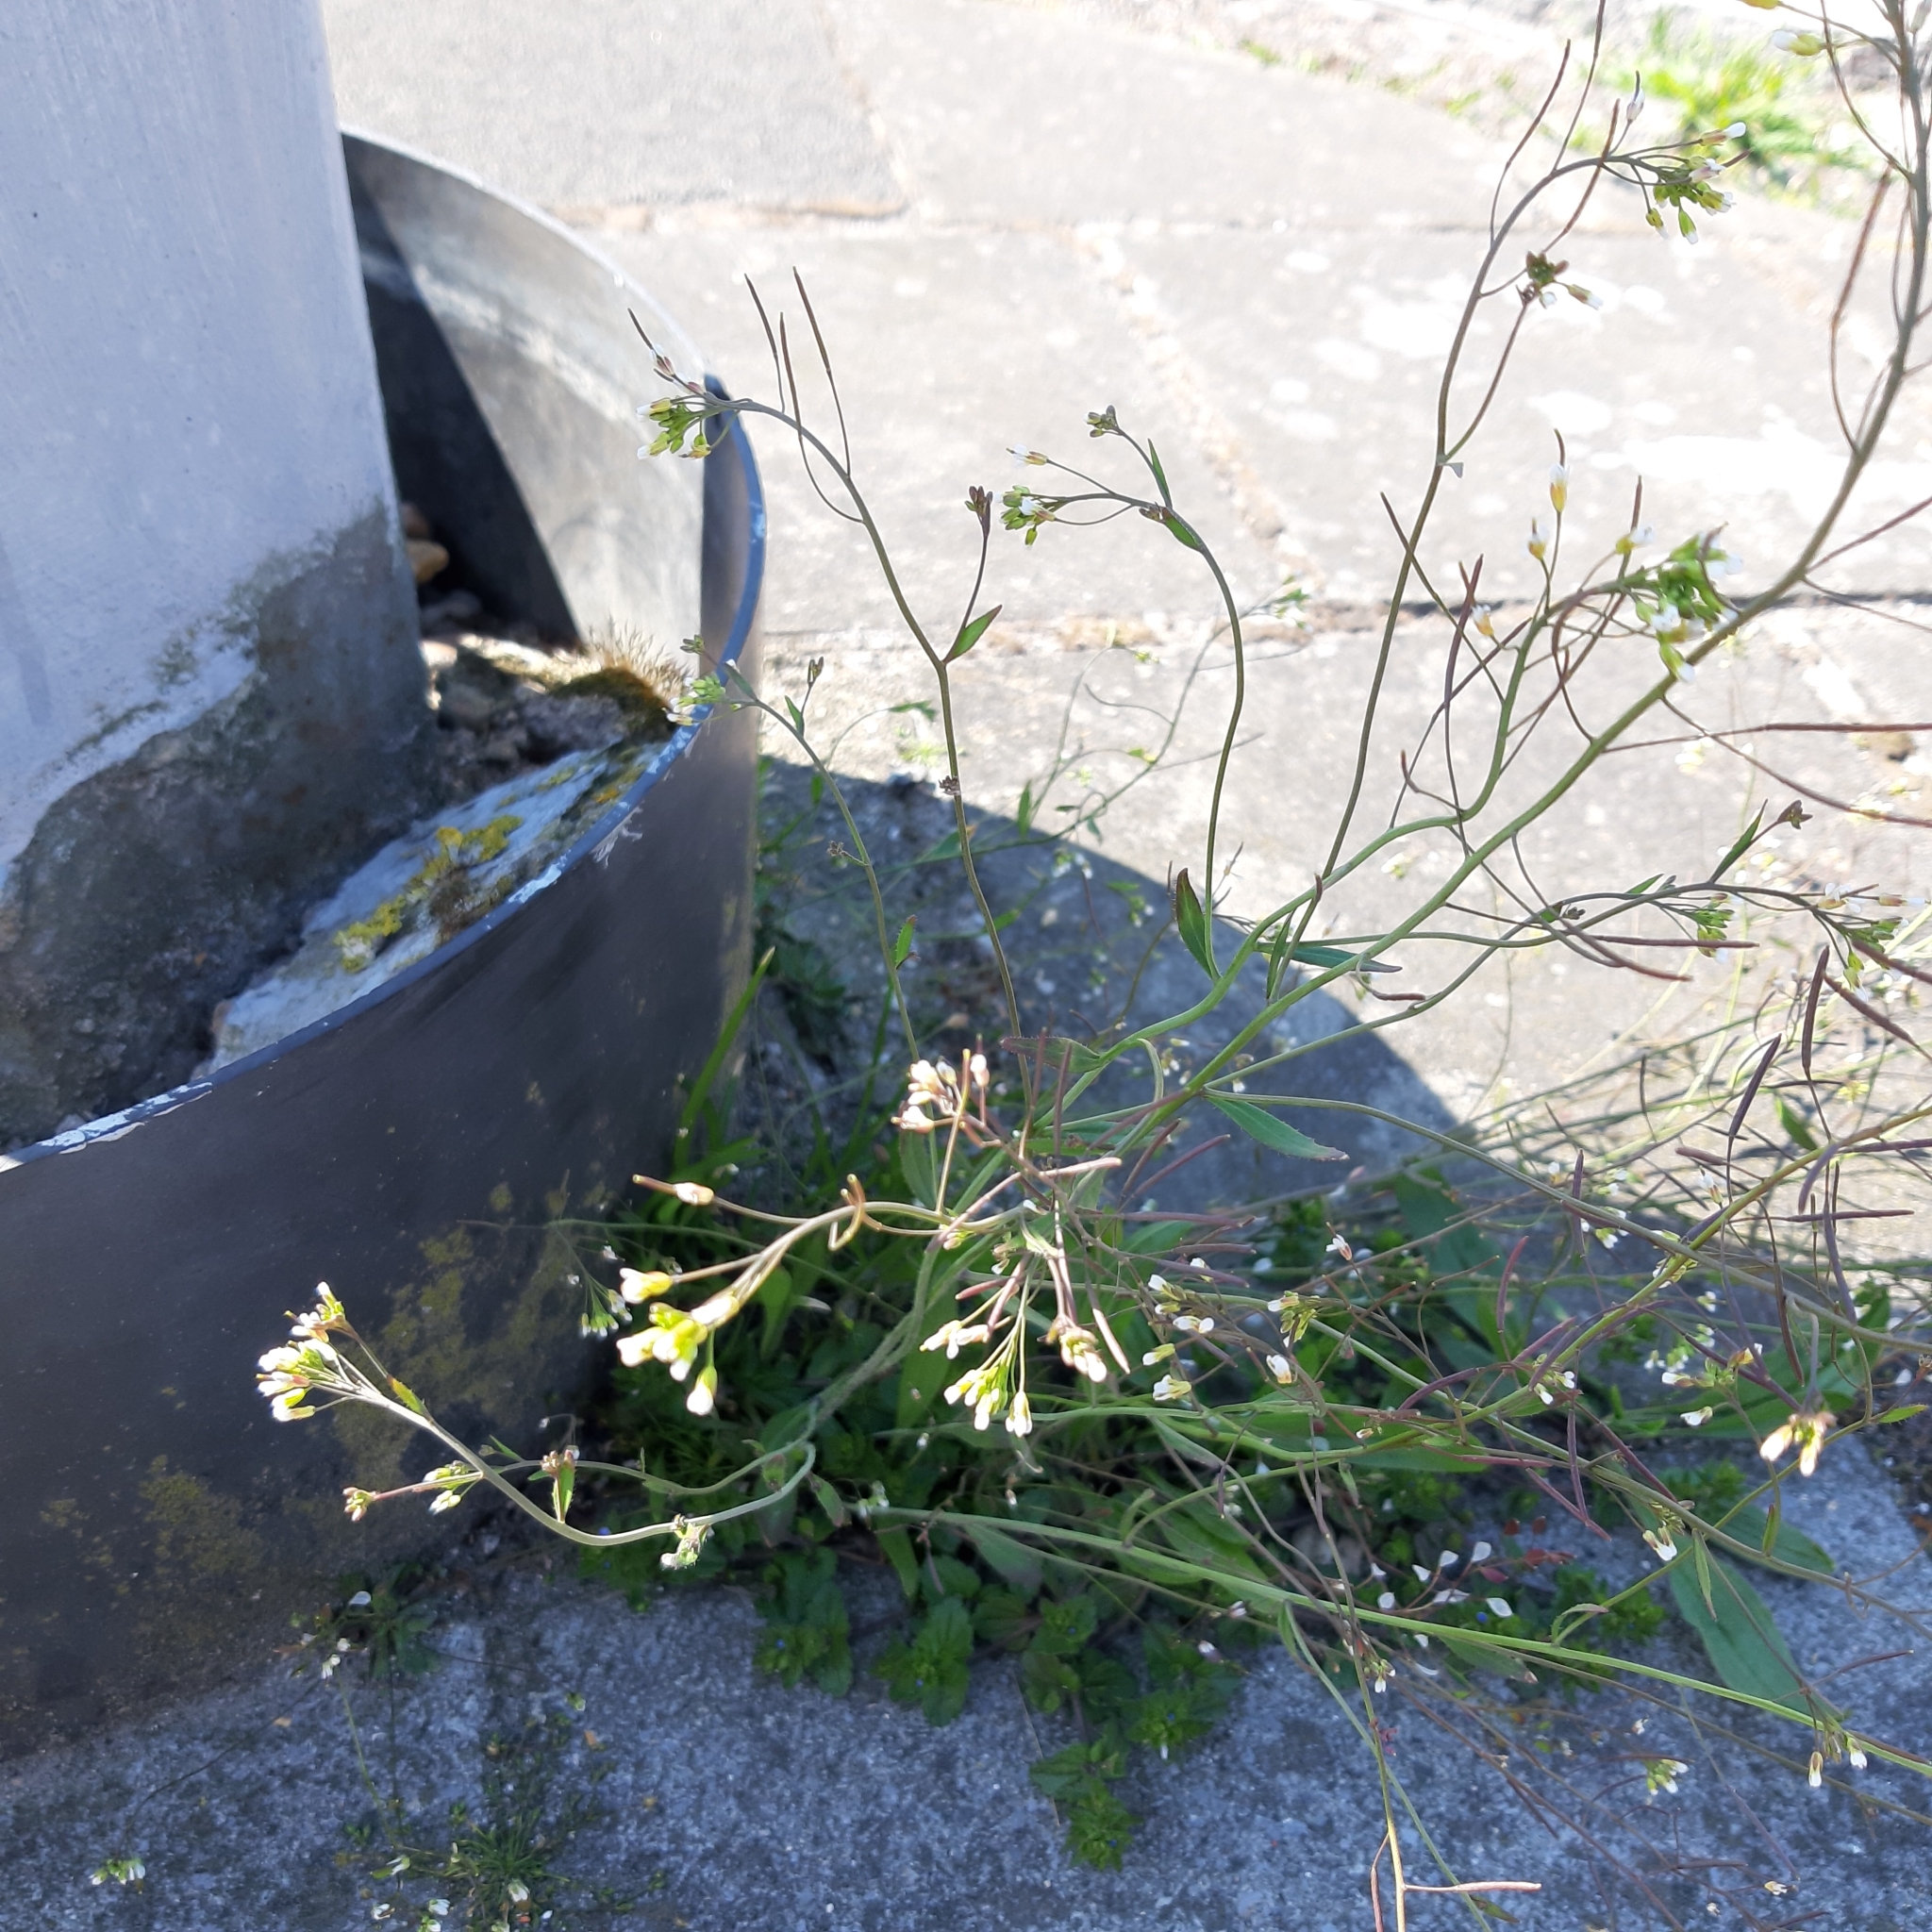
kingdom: Plantae
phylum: Tracheophyta
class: Magnoliopsida
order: Brassicales
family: Brassicaceae
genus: Arabidopsis
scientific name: Arabidopsis thaliana
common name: Thale cress
